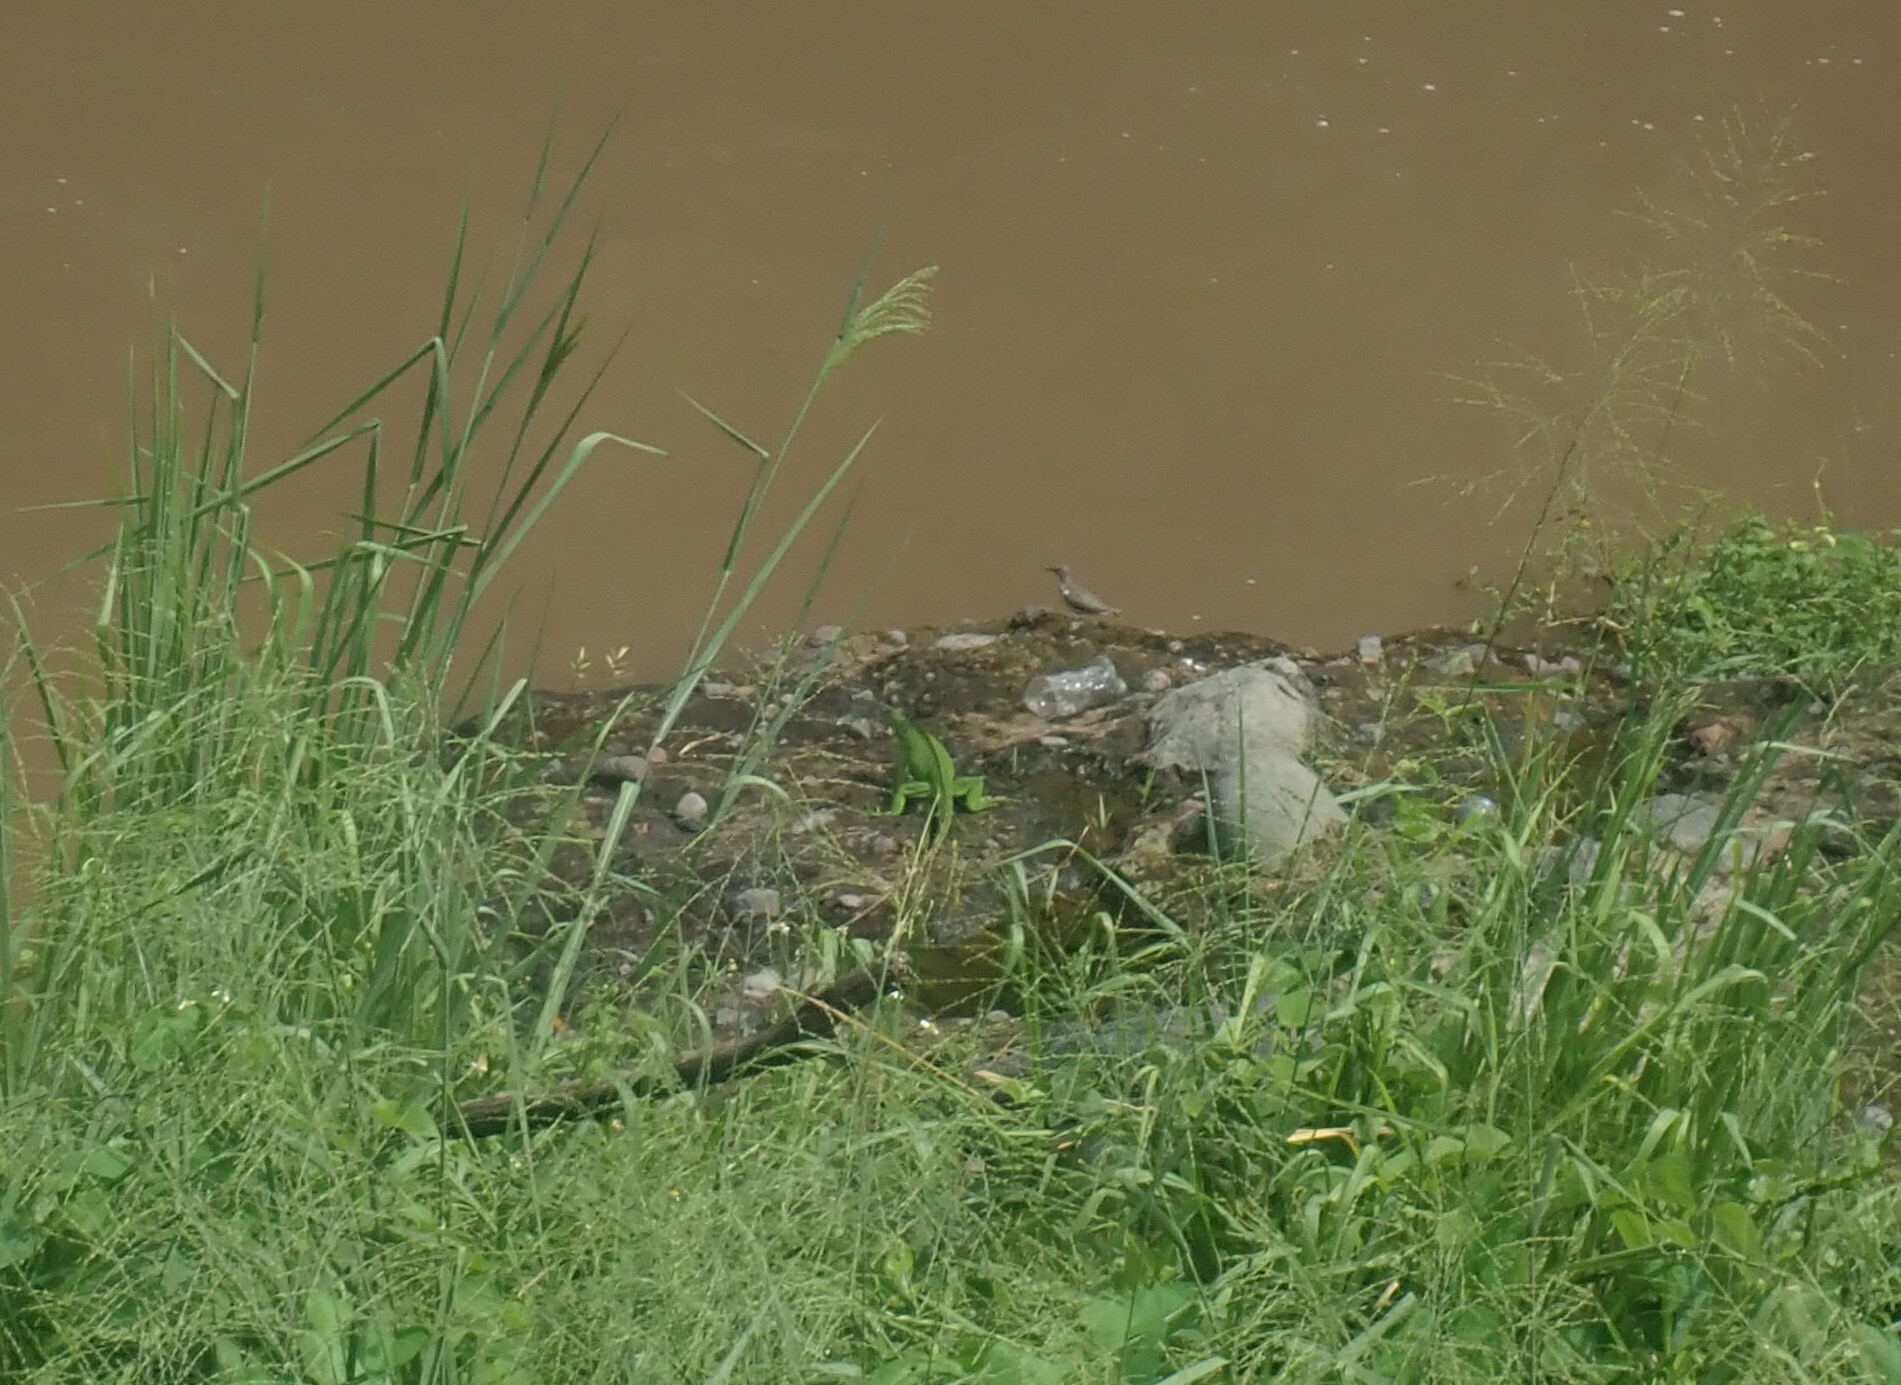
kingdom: Animalia
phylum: Chordata
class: Squamata
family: Iguanidae
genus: Iguana
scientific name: Iguana iguana
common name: Green iguana
